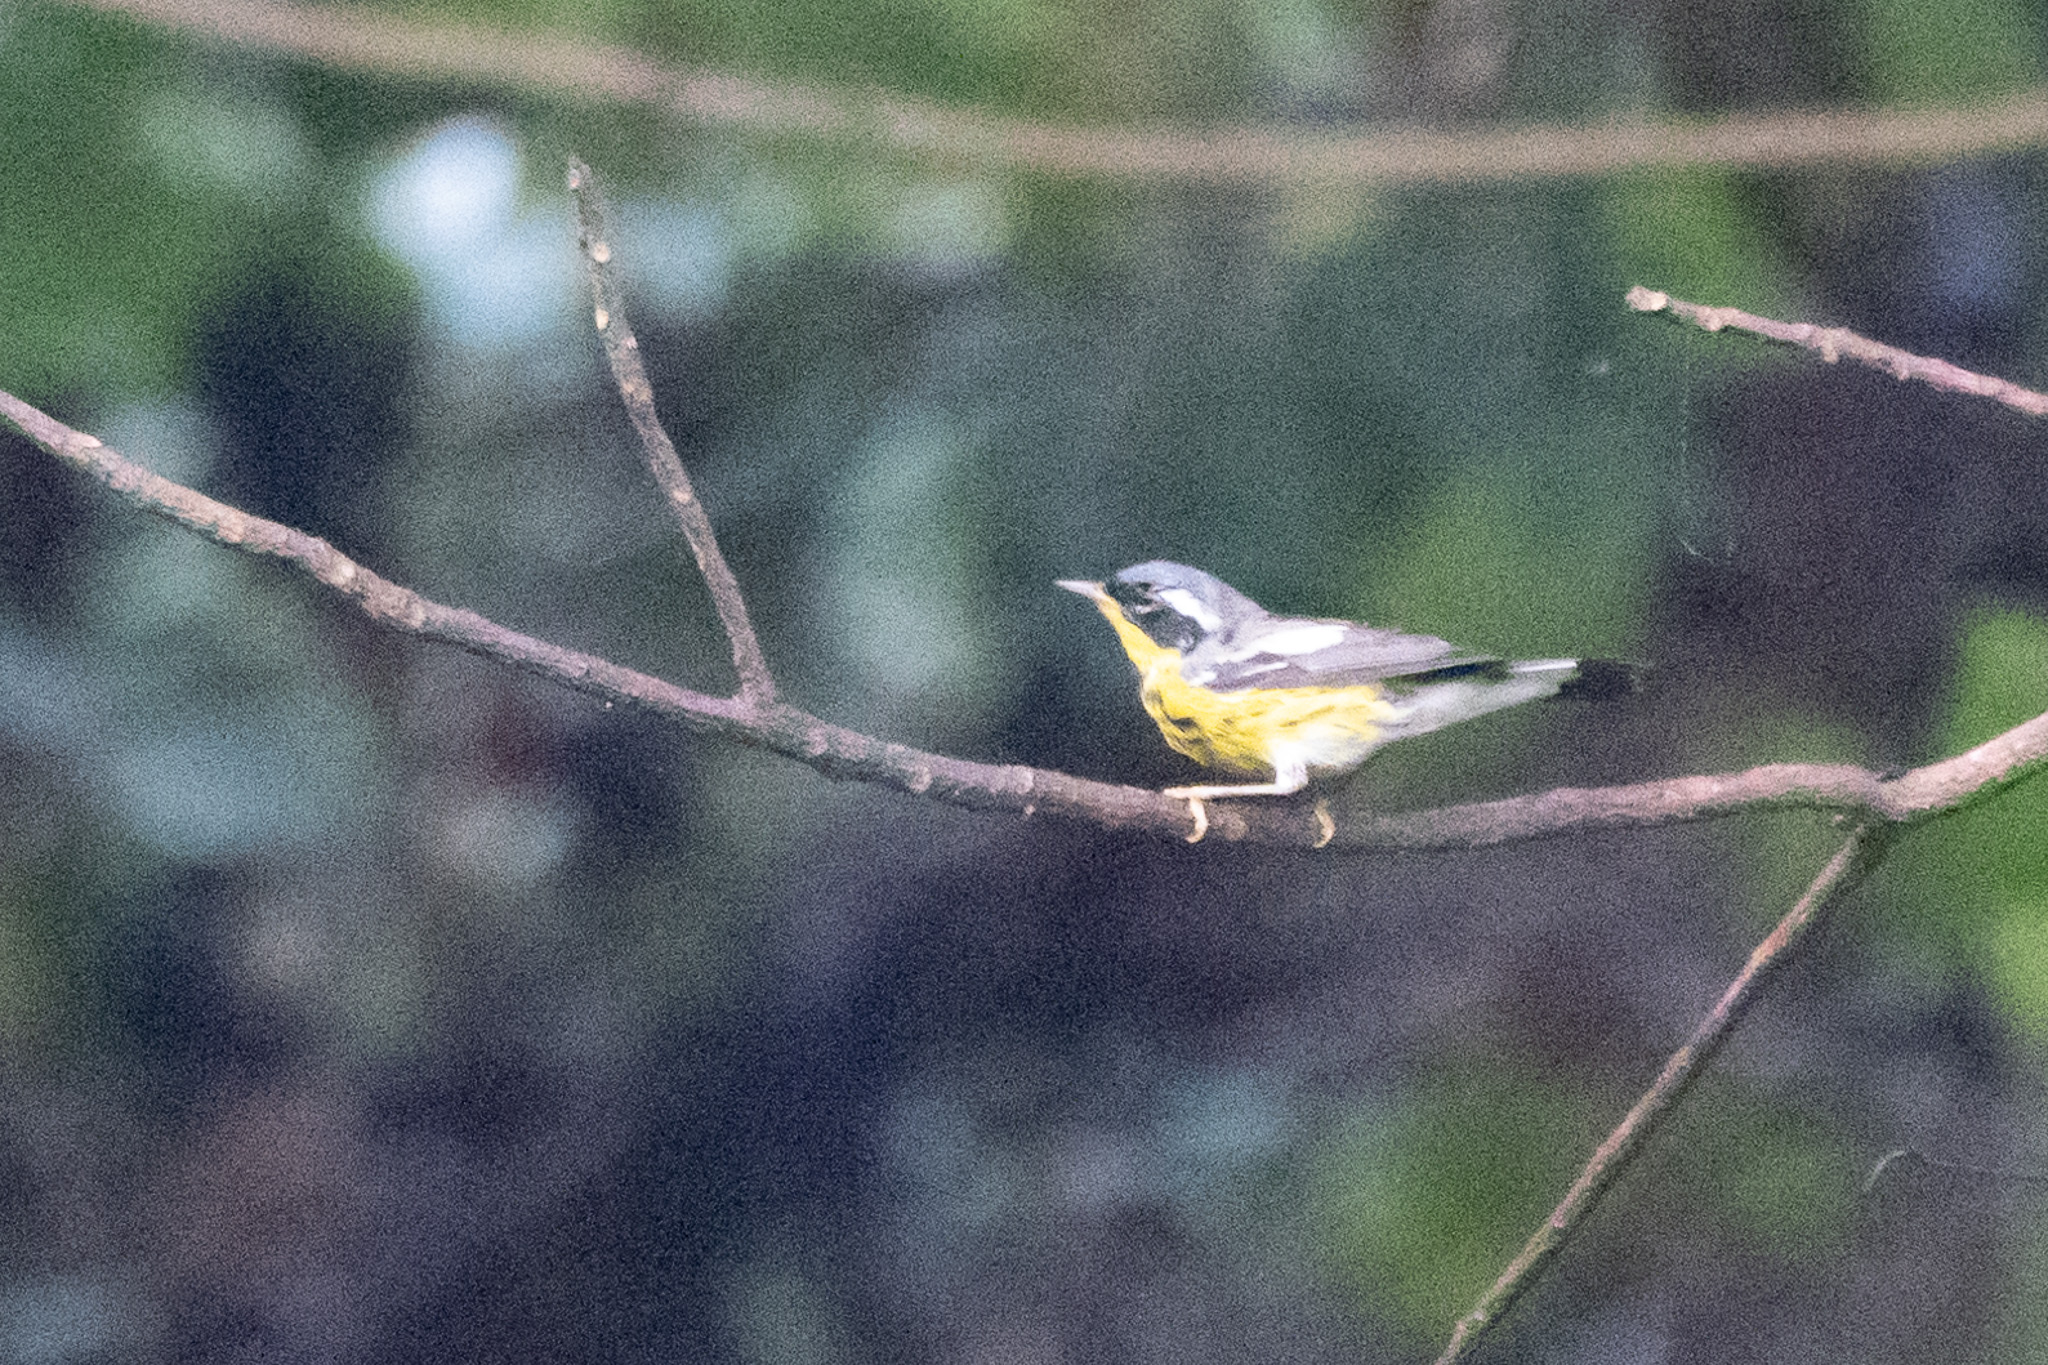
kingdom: Animalia
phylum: Chordata
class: Aves
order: Passeriformes
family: Parulidae
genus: Setophaga
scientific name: Setophaga magnolia
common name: Magnolia warbler
